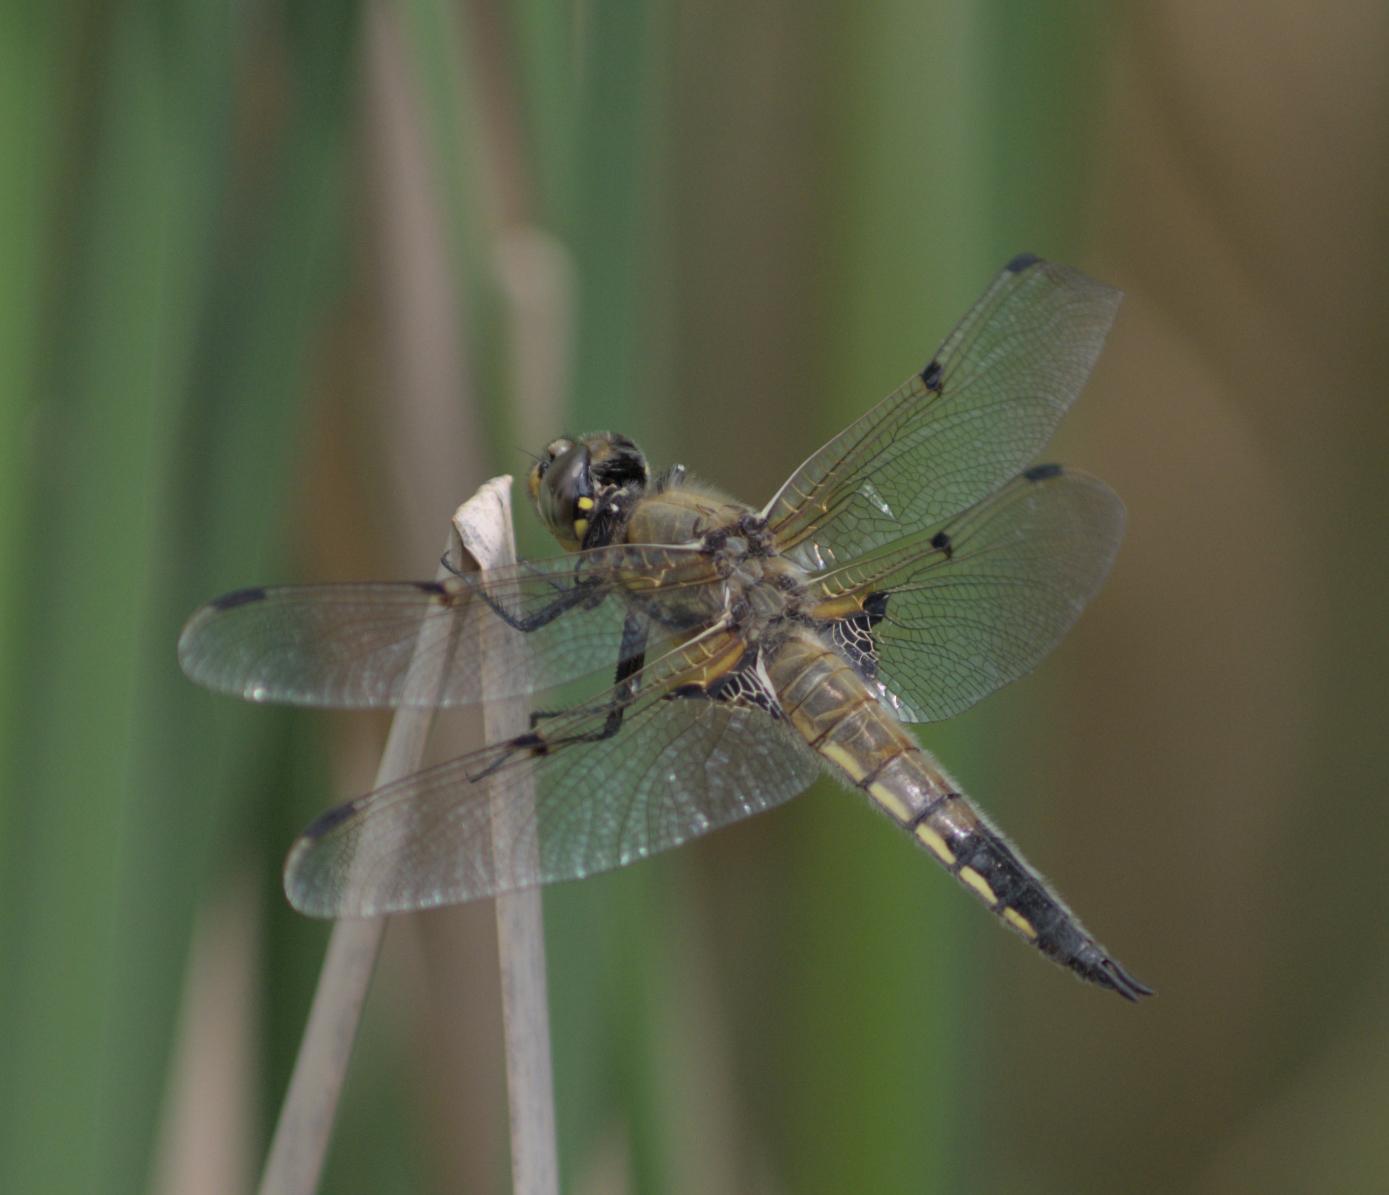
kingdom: Animalia
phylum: Arthropoda
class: Insecta
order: Odonata
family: Libellulidae
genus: Libellula
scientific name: Libellula quadrimaculata
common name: Four-spotted chaser
